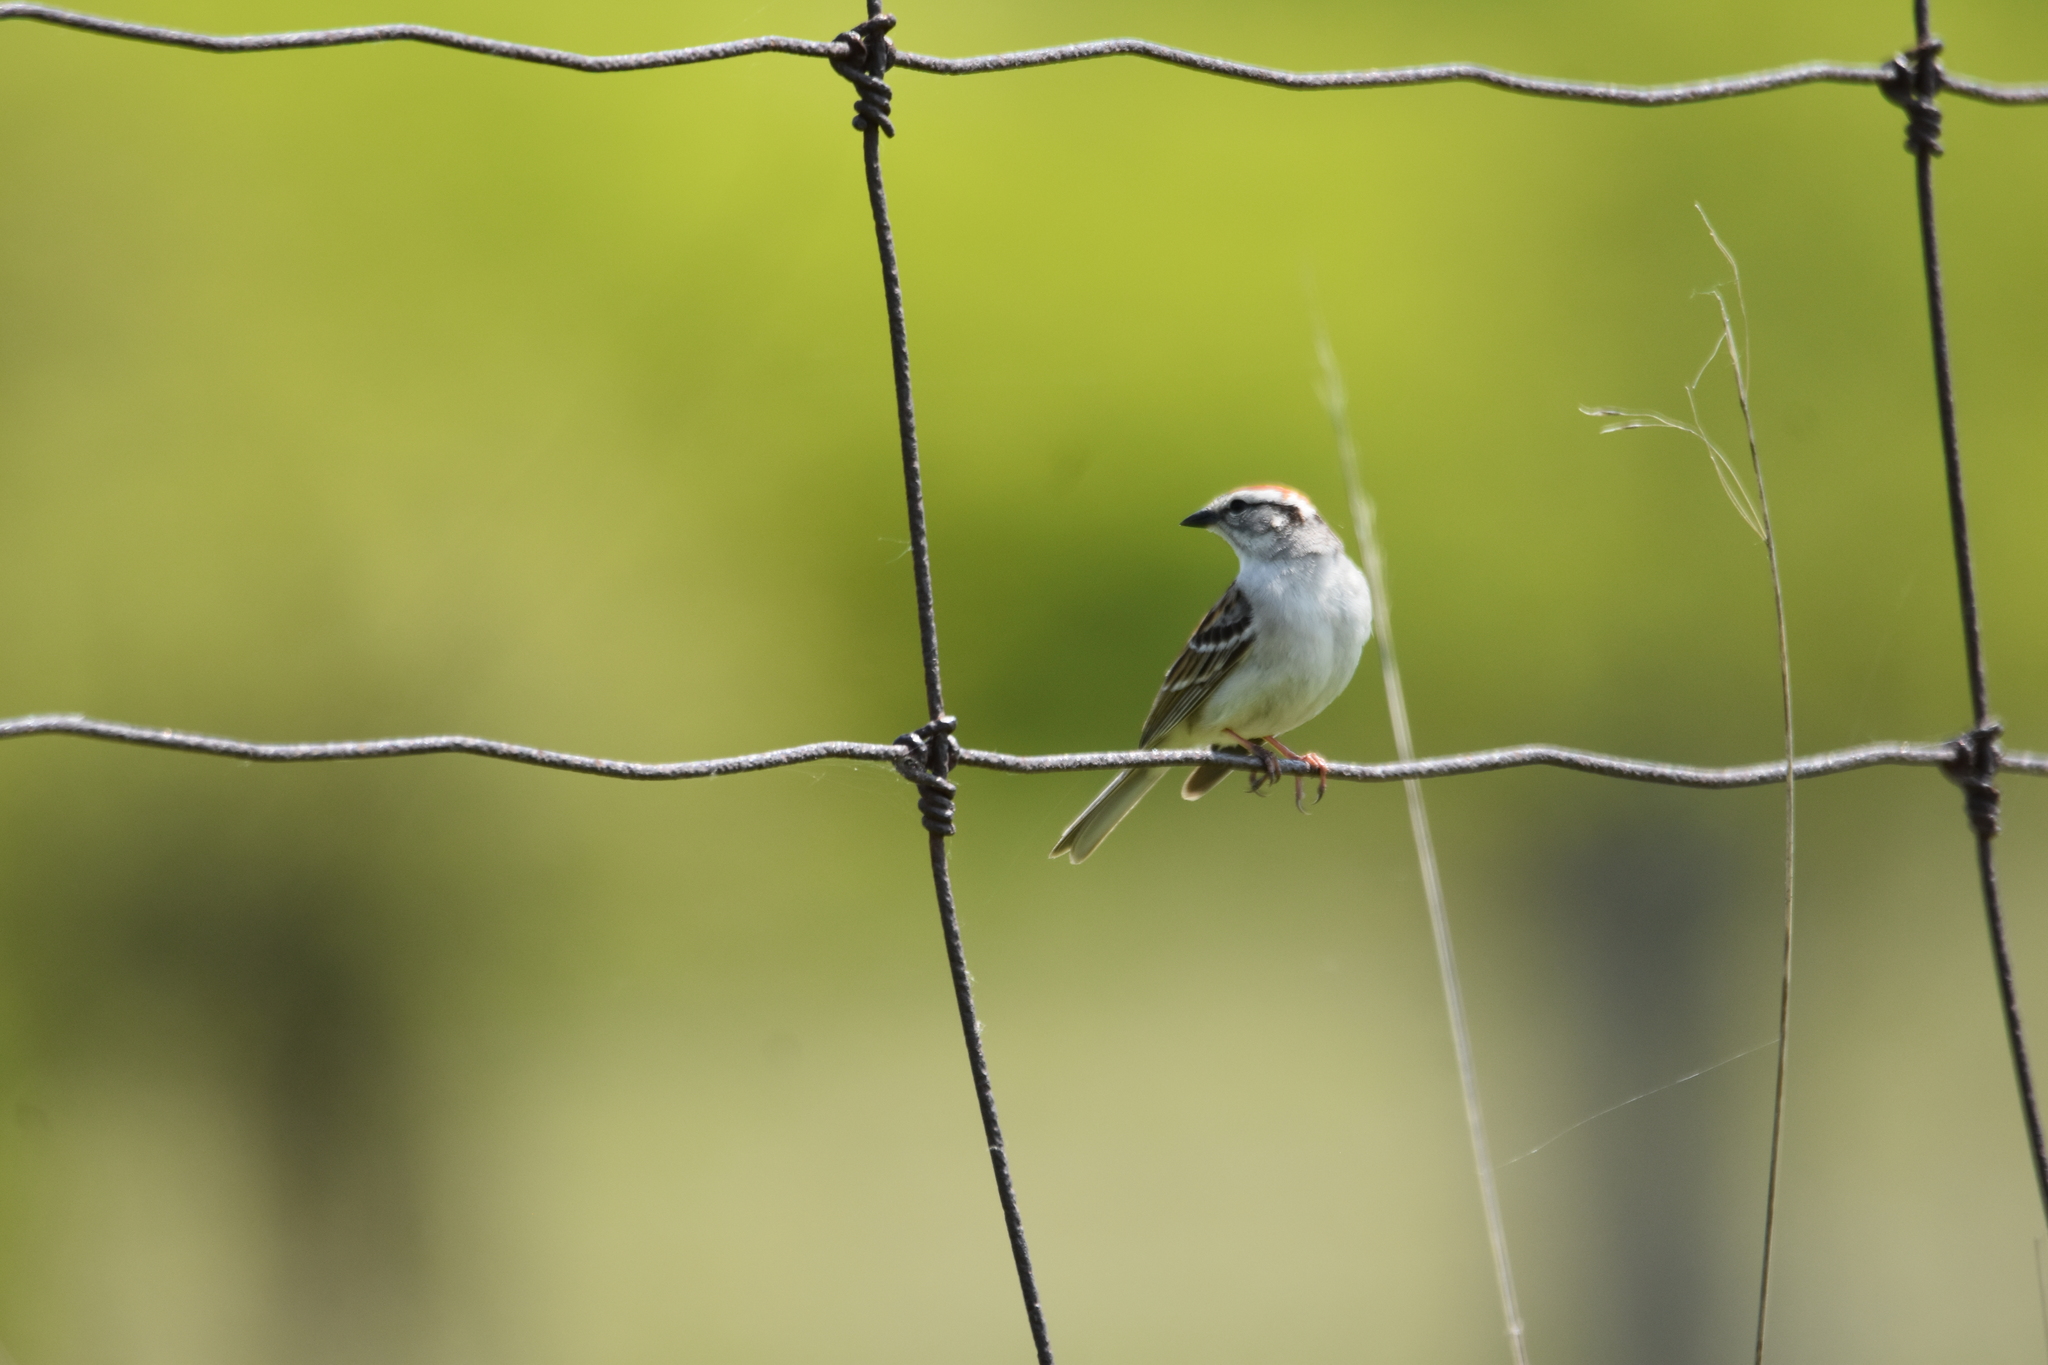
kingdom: Animalia
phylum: Chordata
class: Aves
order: Passeriformes
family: Passerellidae
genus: Spizella
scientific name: Spizella passerina
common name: Chipping sparrow
